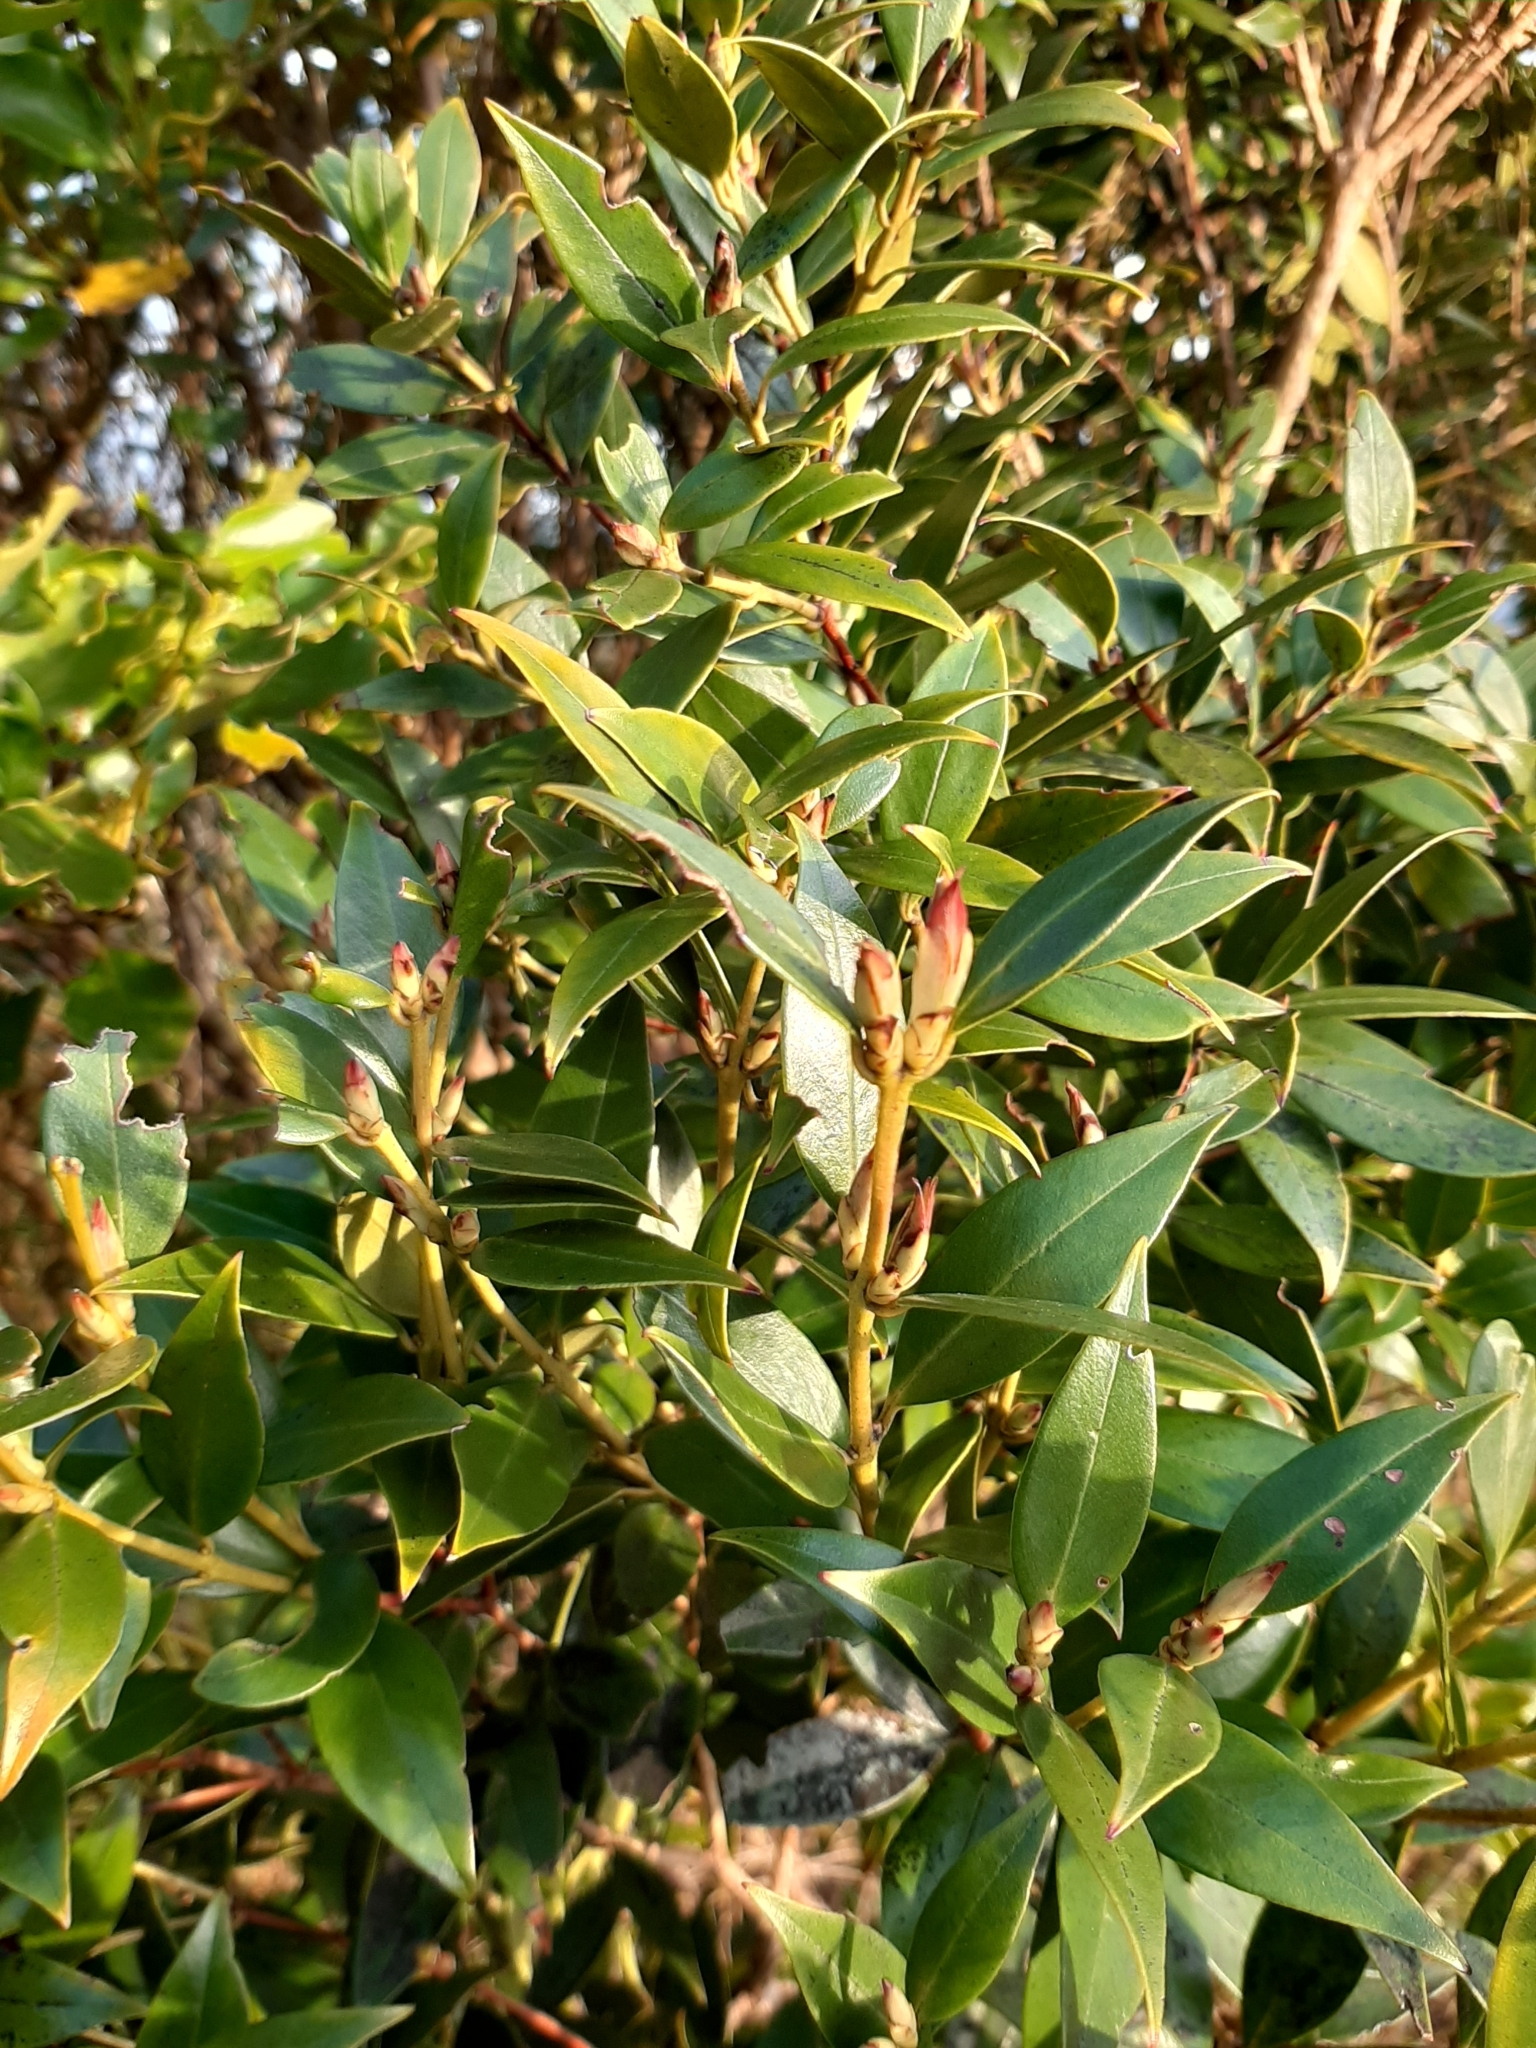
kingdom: Plantae
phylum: Tracheophyta
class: Magnoliopsida
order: Myrtales
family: Myrtaceae
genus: Metrosideros
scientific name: Metrosideros umbellata
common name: Southern rata
